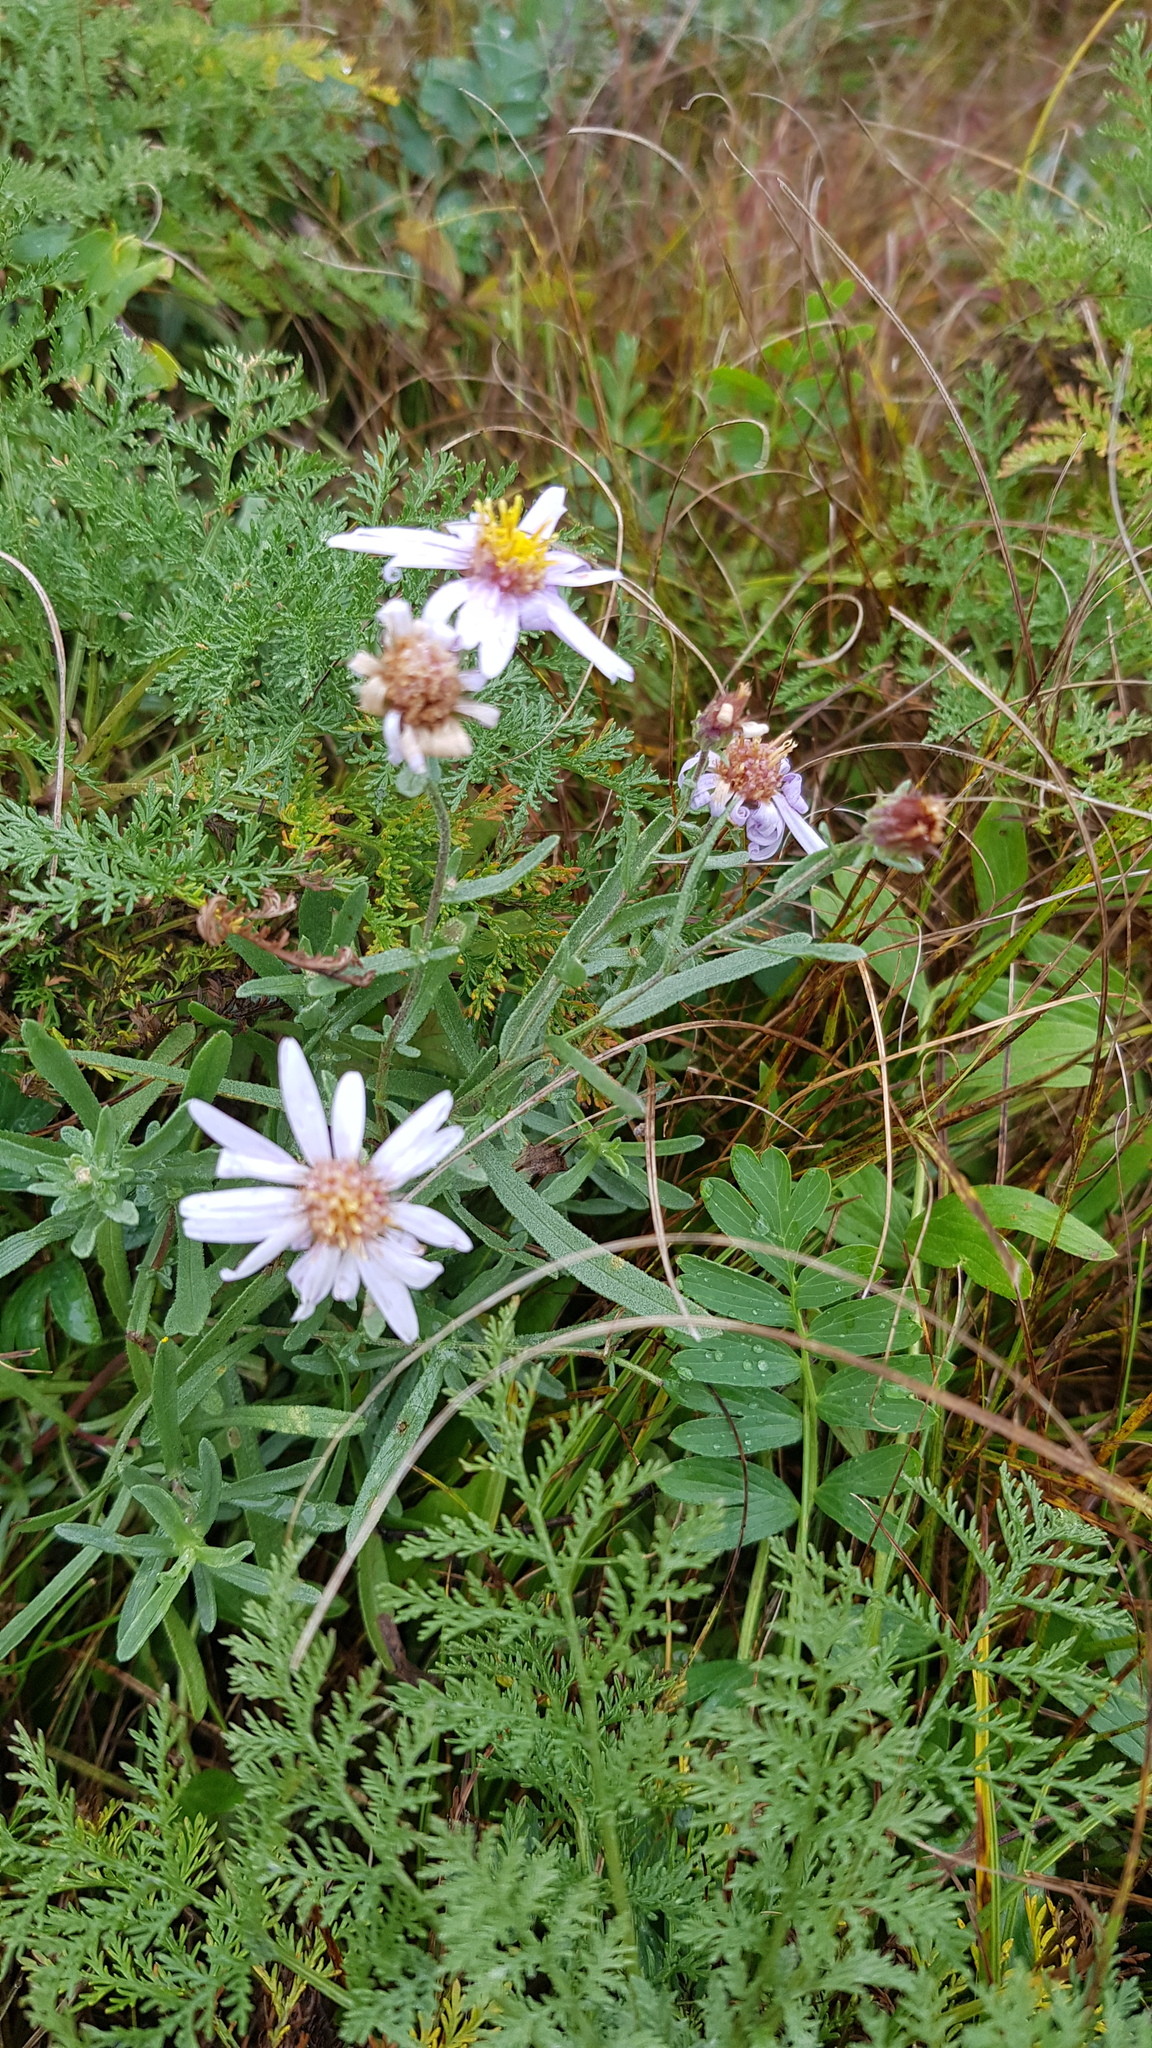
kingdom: Plantae
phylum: Tracheophyta
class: Magnoliopsida
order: Asterales
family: Asteraceae
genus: Heteropappus
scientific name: Heteropappus altaicus
